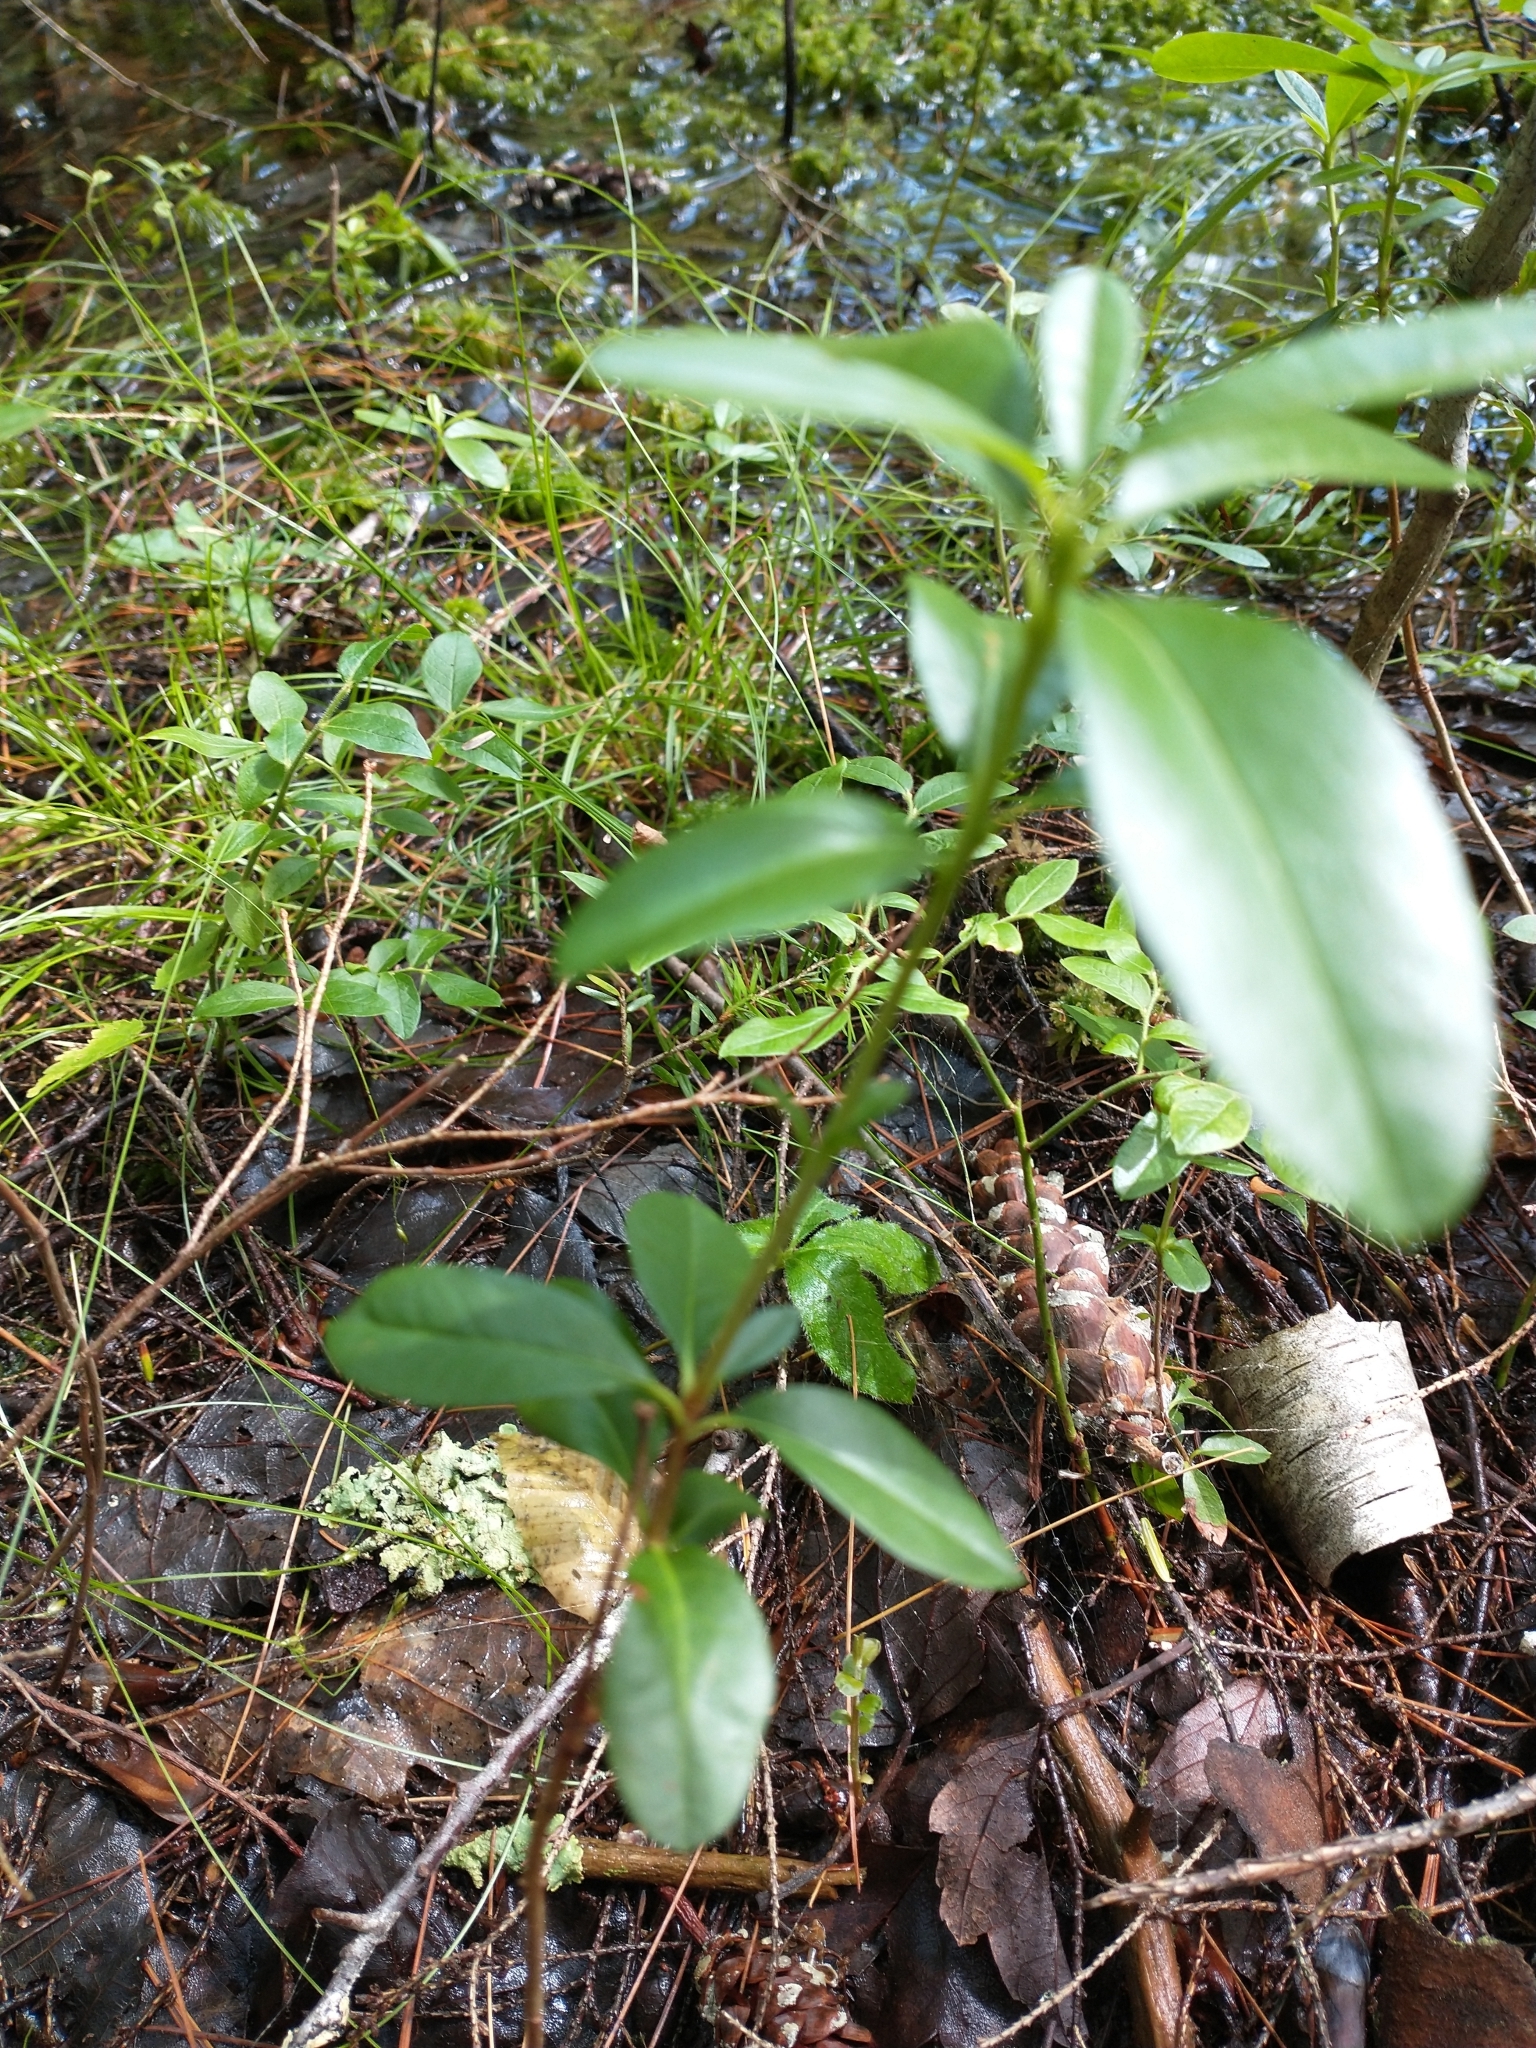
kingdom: Plantae
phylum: Tracheophyta
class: Magnoliopsida
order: Ericales
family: Ericaceae
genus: Kalmia
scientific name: Kalmia angustifolia
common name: Sheep-laurel
